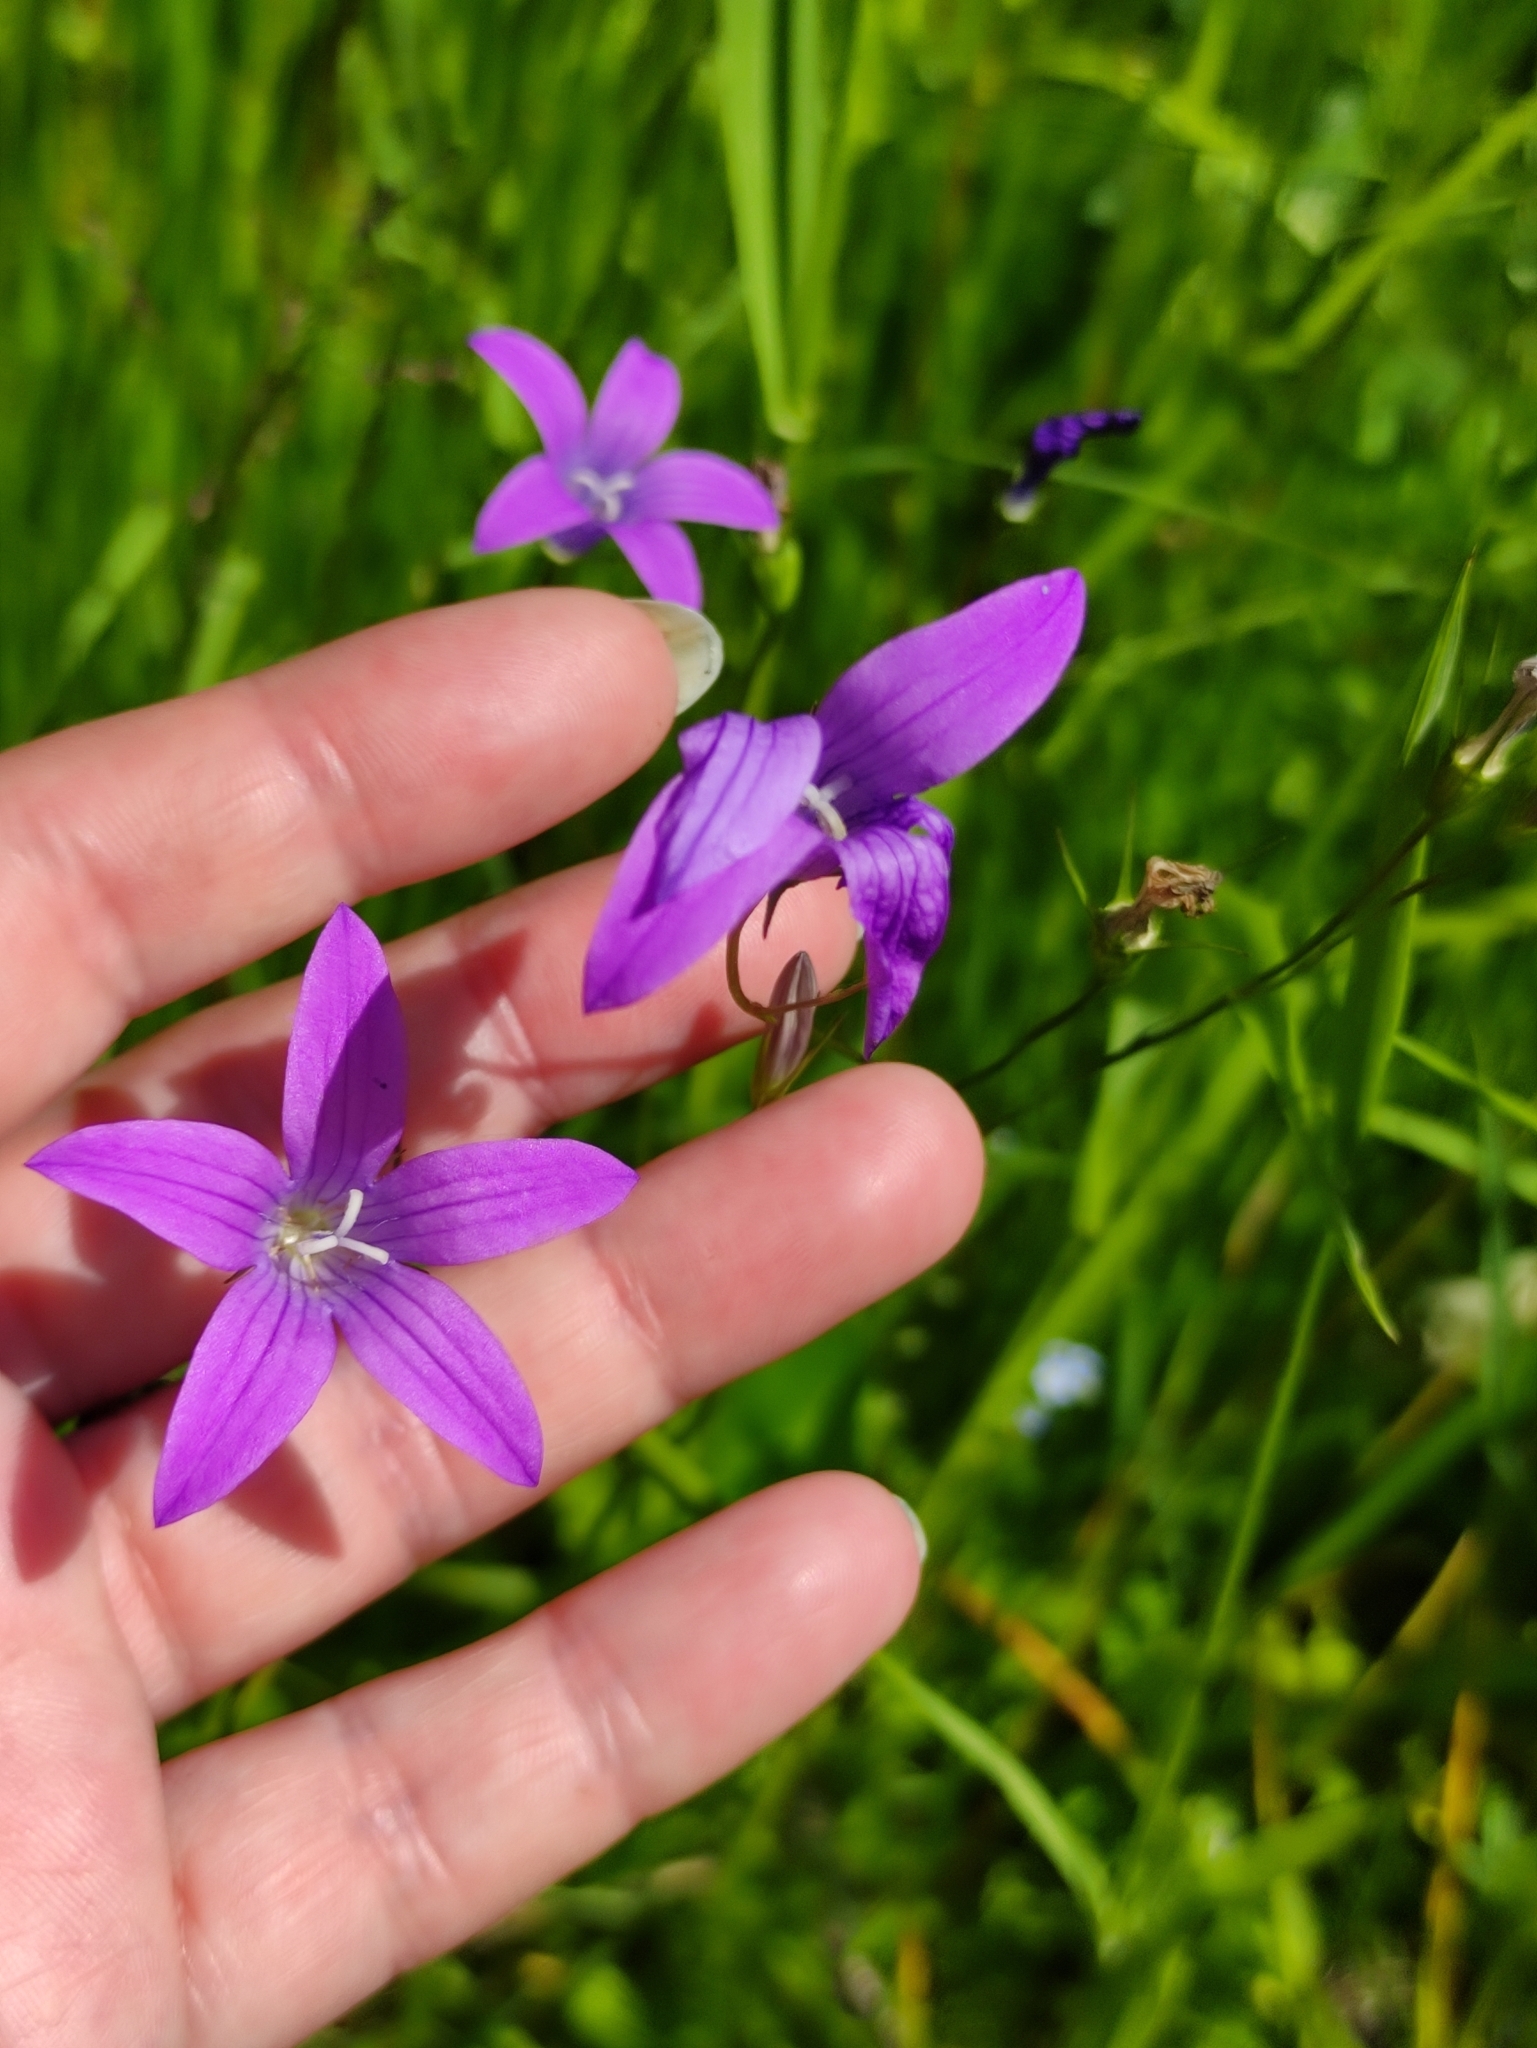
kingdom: Plantae
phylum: Tracheophyta
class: Magnoliopsida
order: Asterales
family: Campanulaceae
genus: Campanula
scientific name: Campanula patula
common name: Spreading bellflower
